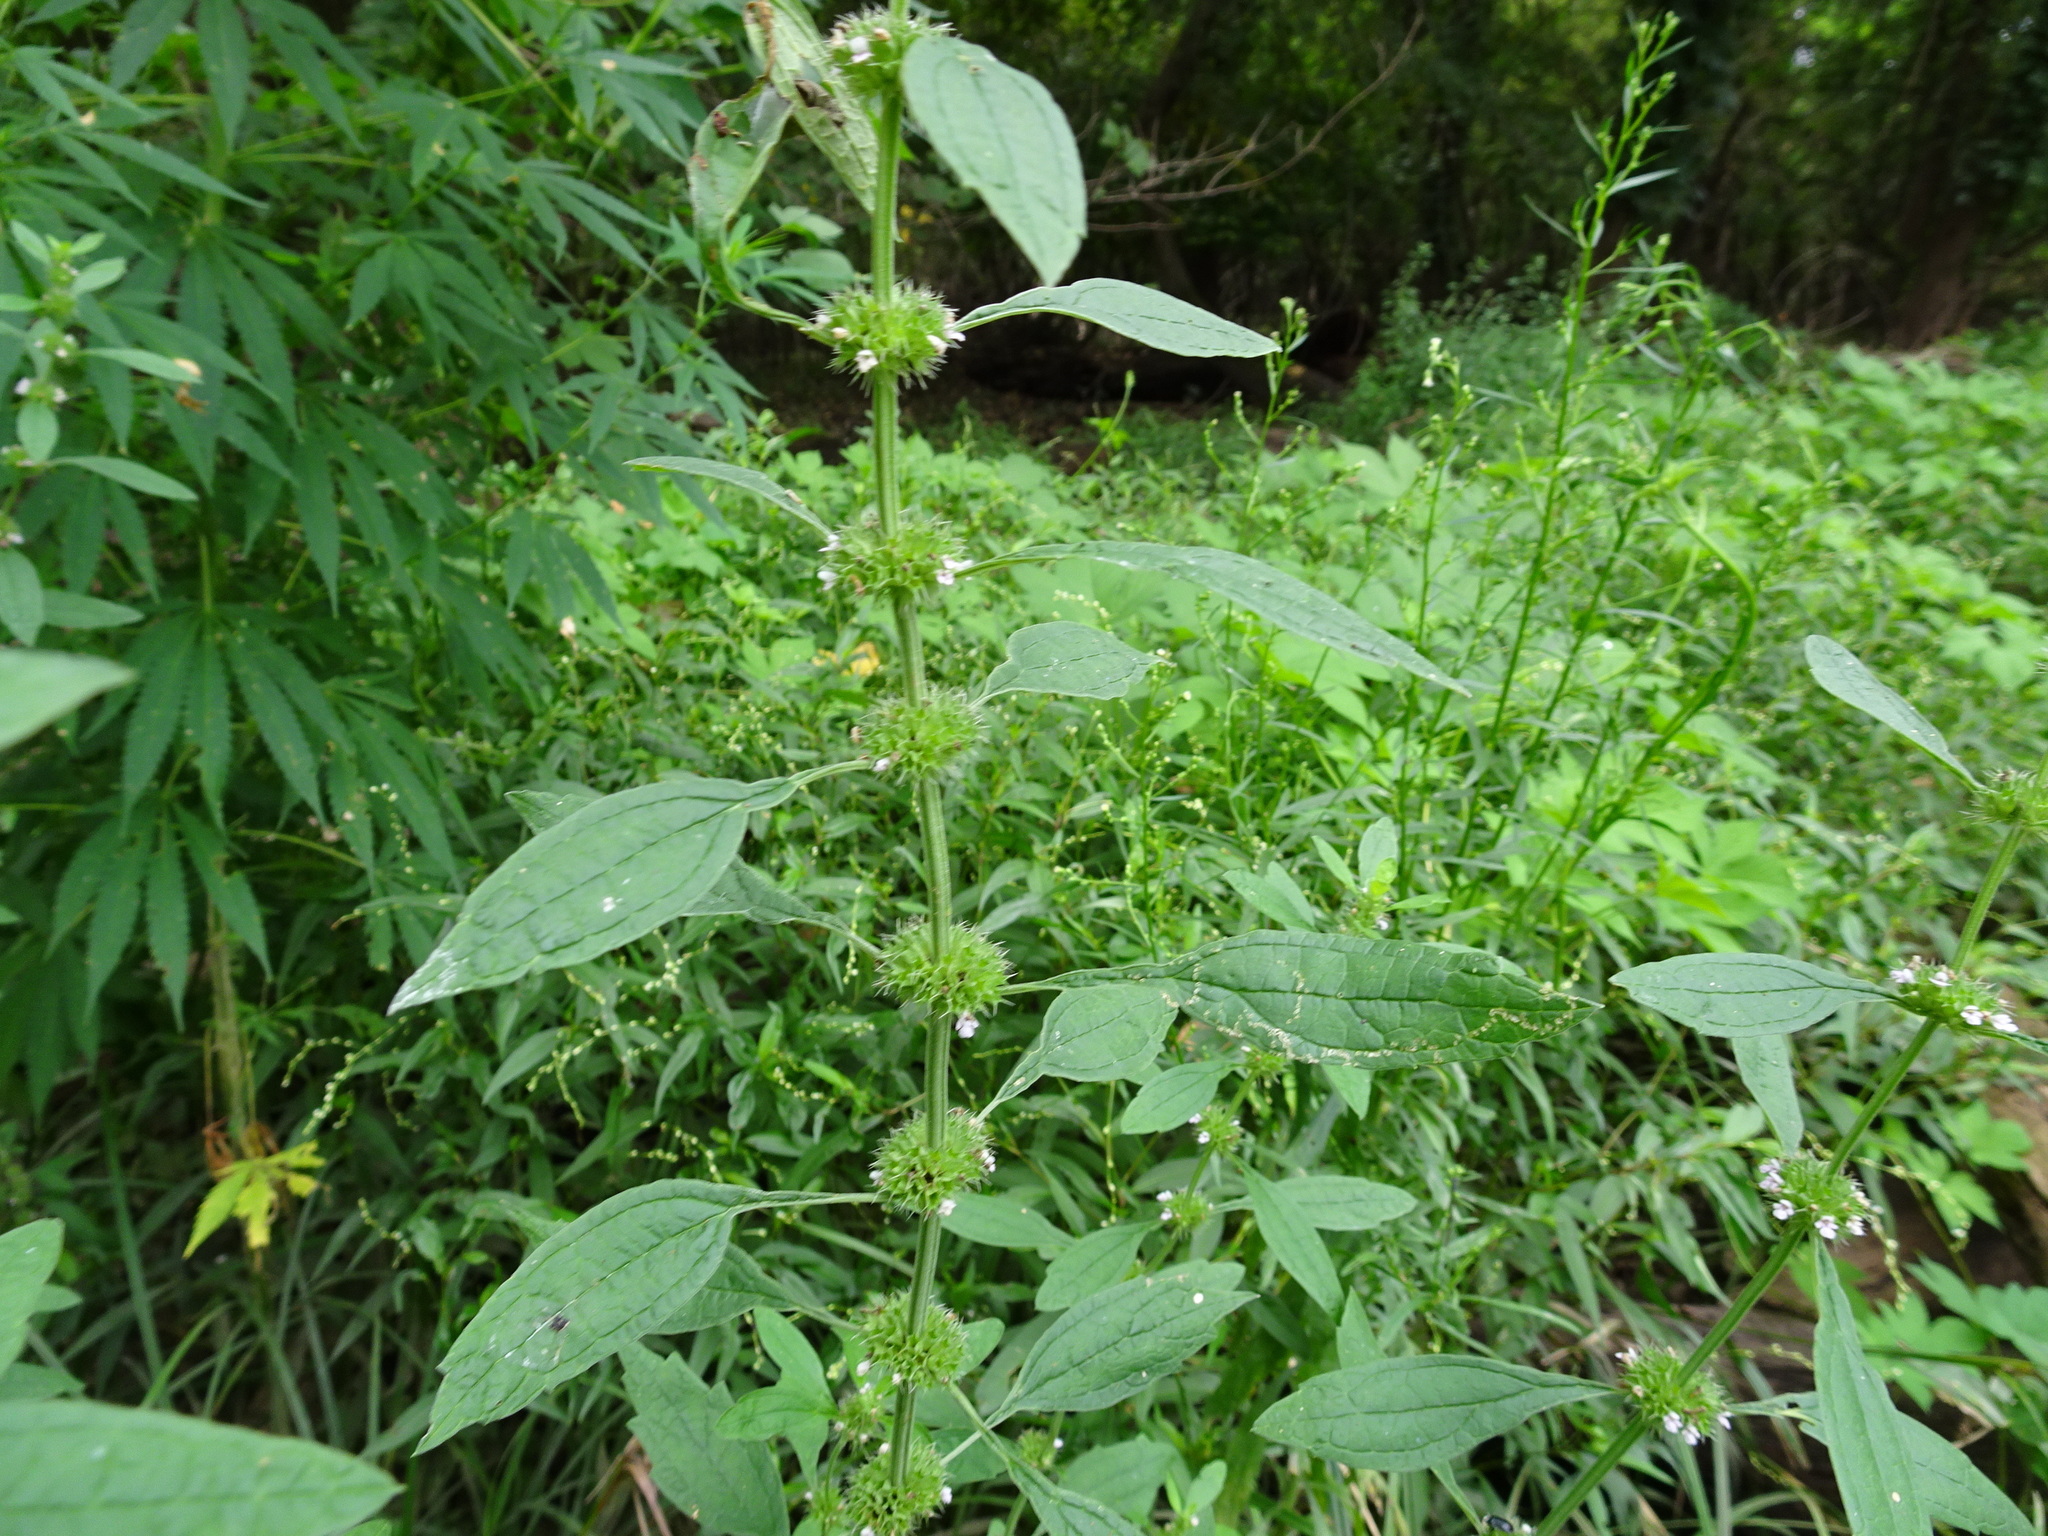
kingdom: Plantae
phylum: Tracheophyta
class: Magnoliopsida
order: Lamiales
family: Lamiaceae
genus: Chaiturus
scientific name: Chaiturus marrubiastrum
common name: Lion's tail
